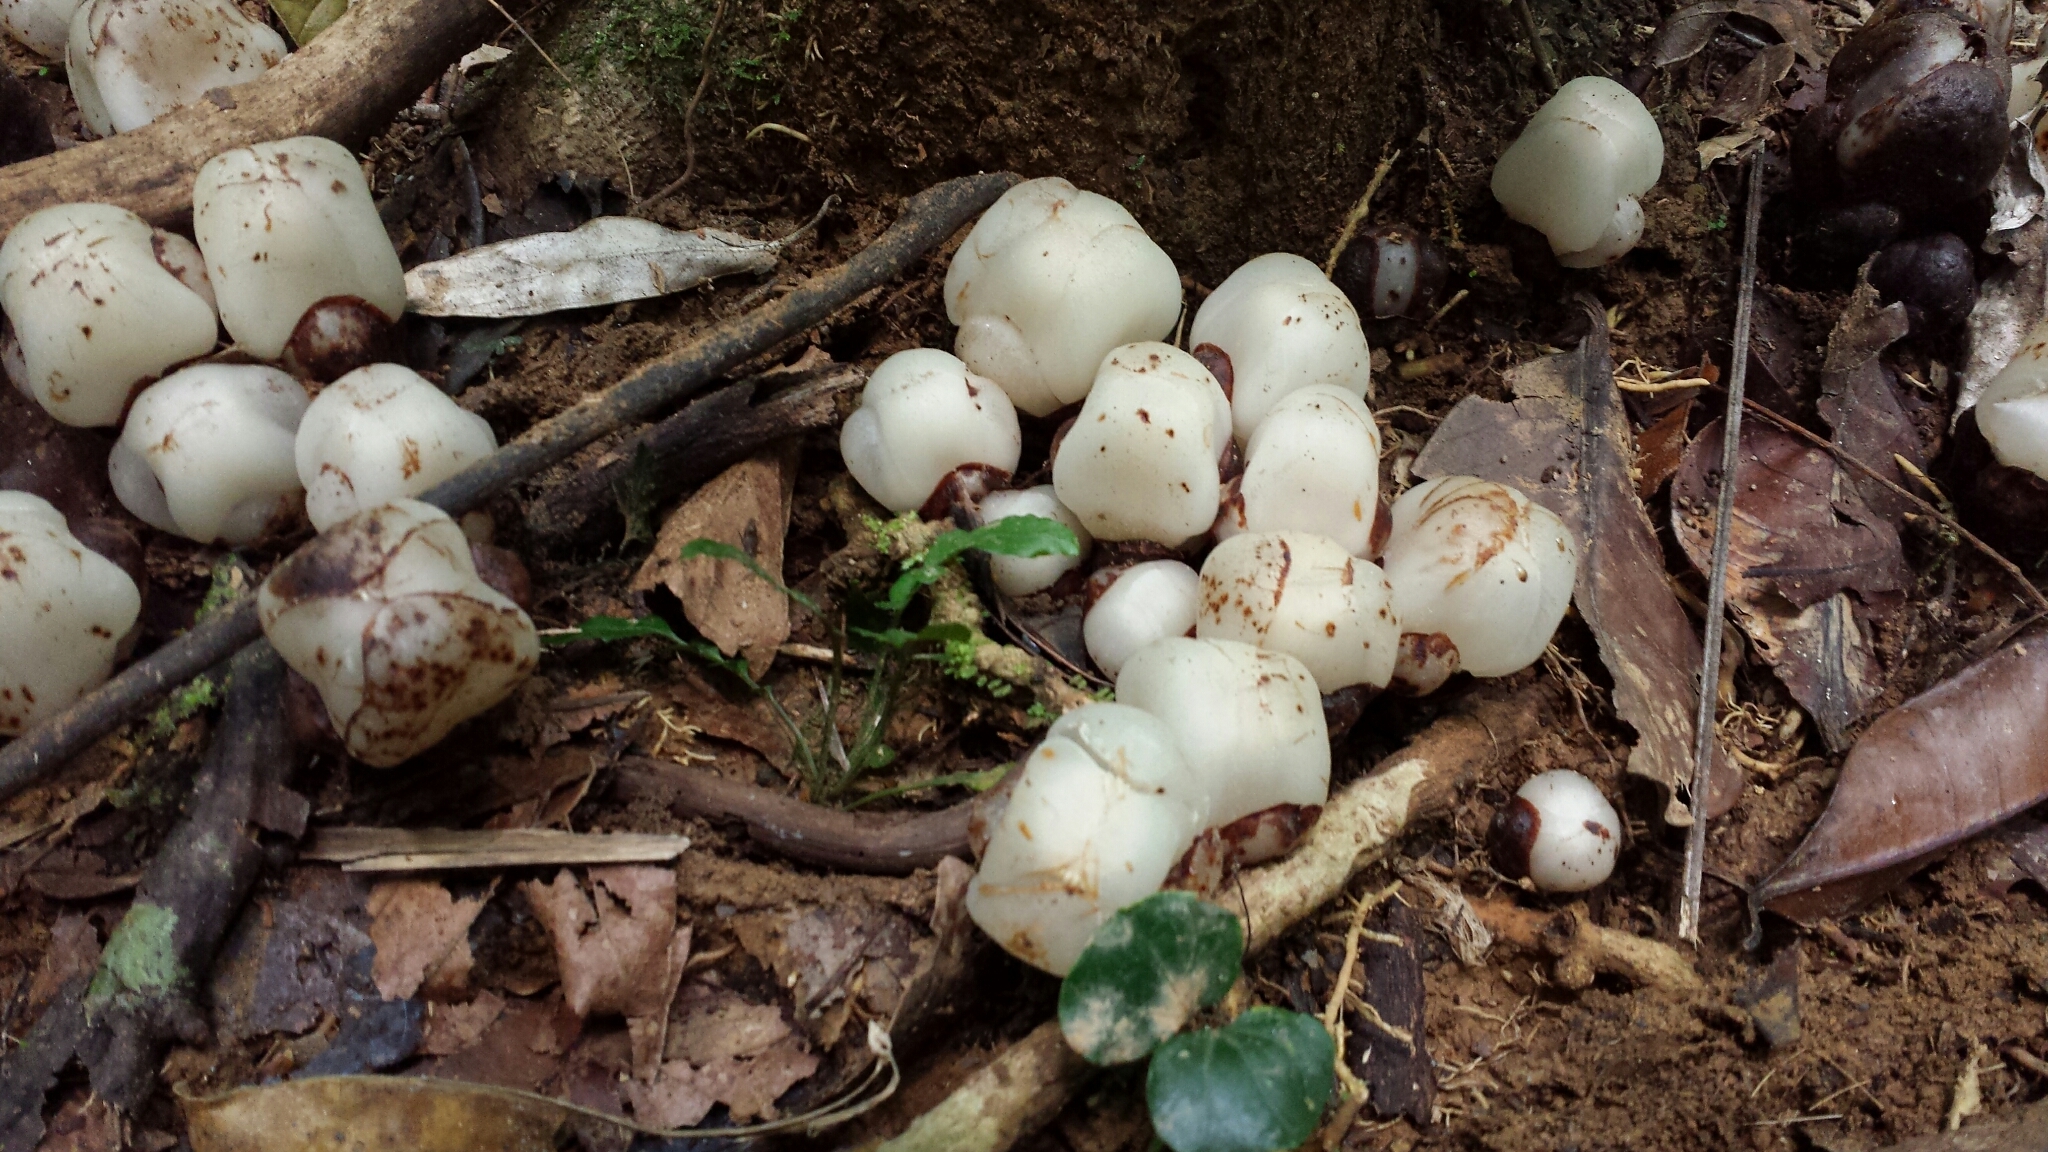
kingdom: Plantae
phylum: Tracheophyta
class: Magnoliopsida
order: Malvales
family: Cytinaceae
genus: Cytinus
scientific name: Cytinus baronii
